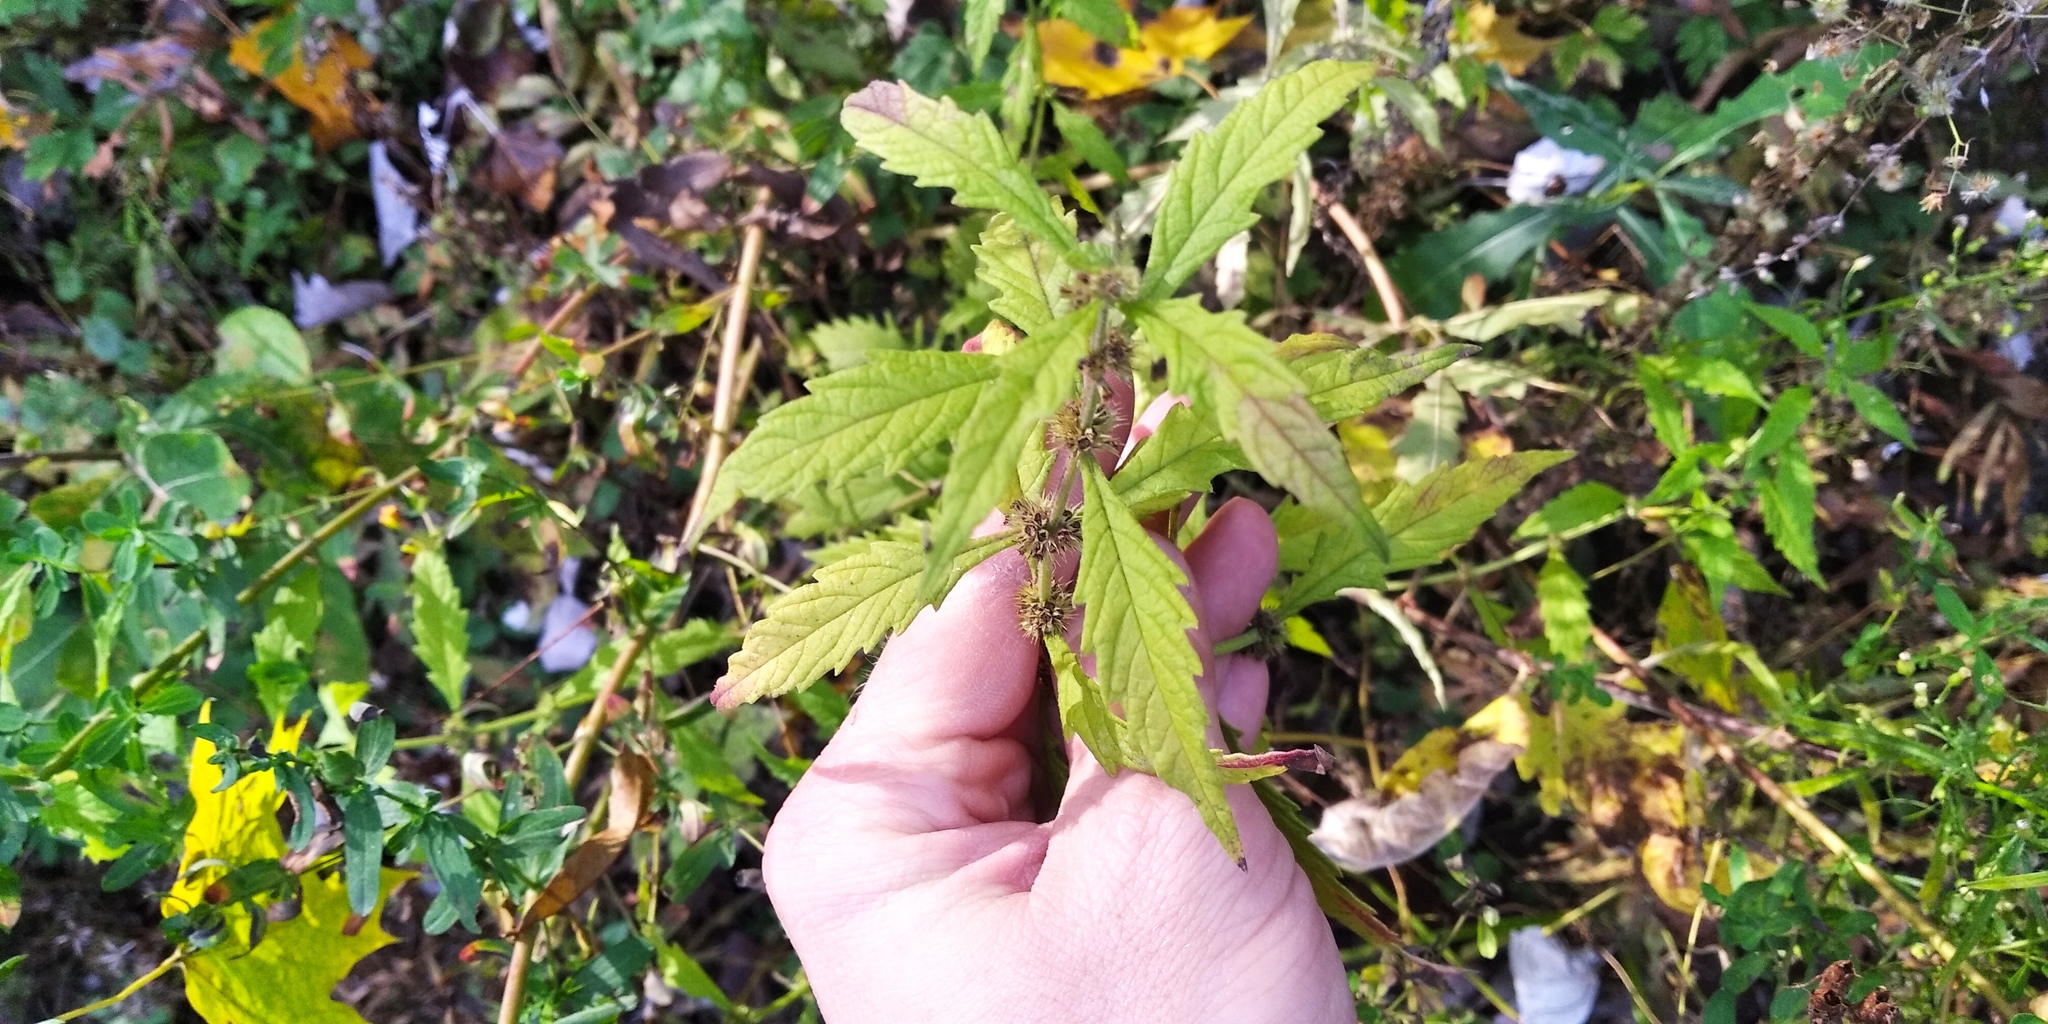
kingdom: Plantae
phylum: Tracheophyta
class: Magnoliopsida
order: Lamiales
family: Lamiaceae
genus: Lycopus
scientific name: Lycopus europaeus
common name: European bugleweed
